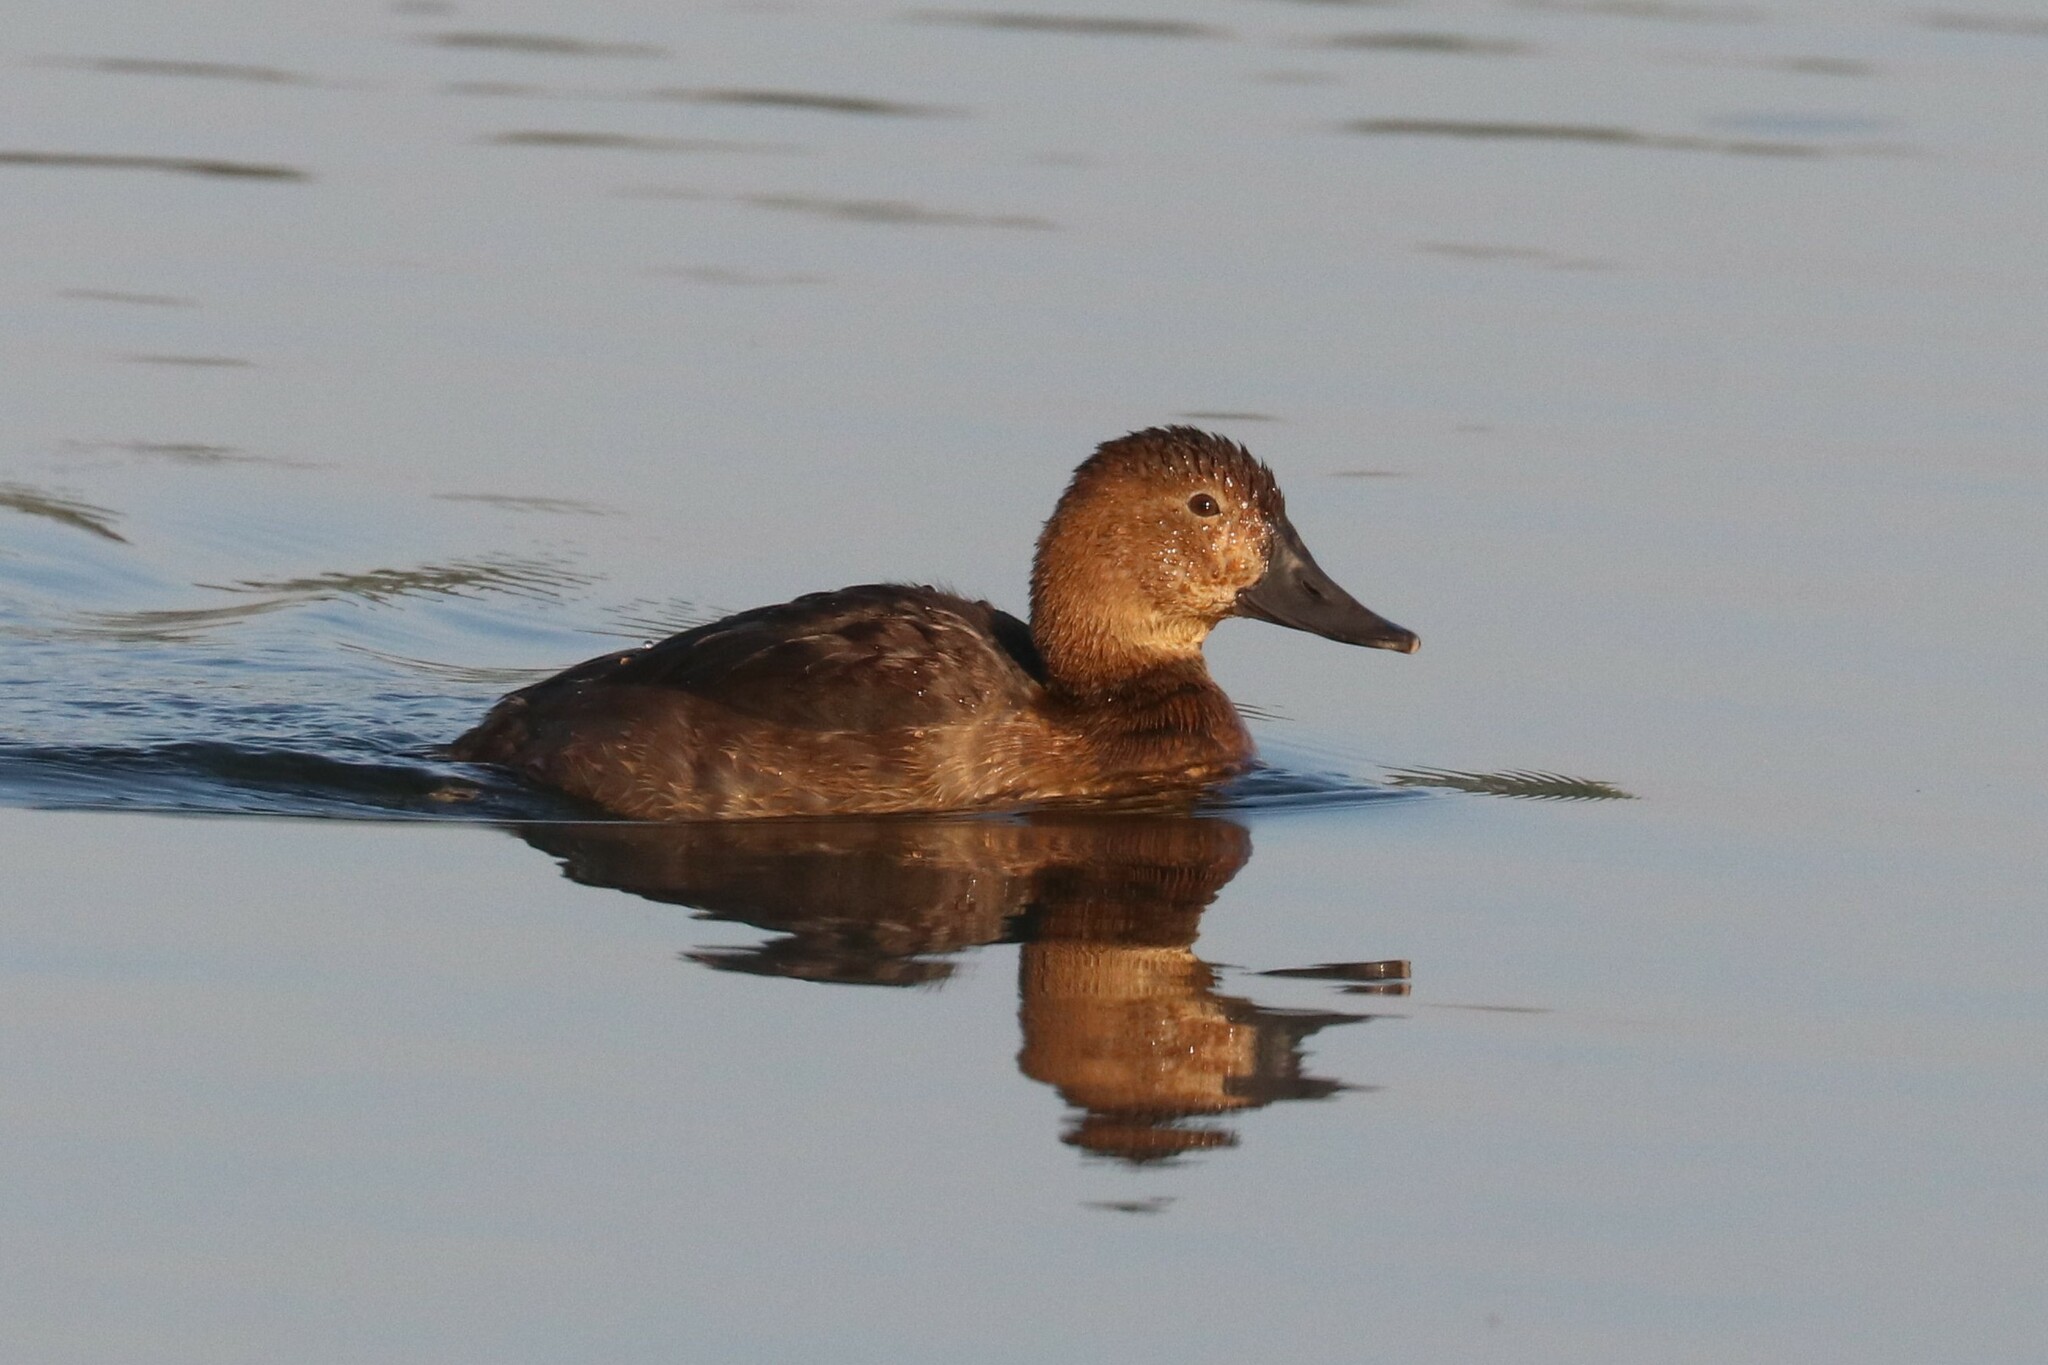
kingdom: Animalia
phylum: Chordata
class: Aves
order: Anseriformes
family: Anatidae
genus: Aythya
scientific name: Aythya ferina
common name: Common pochard
